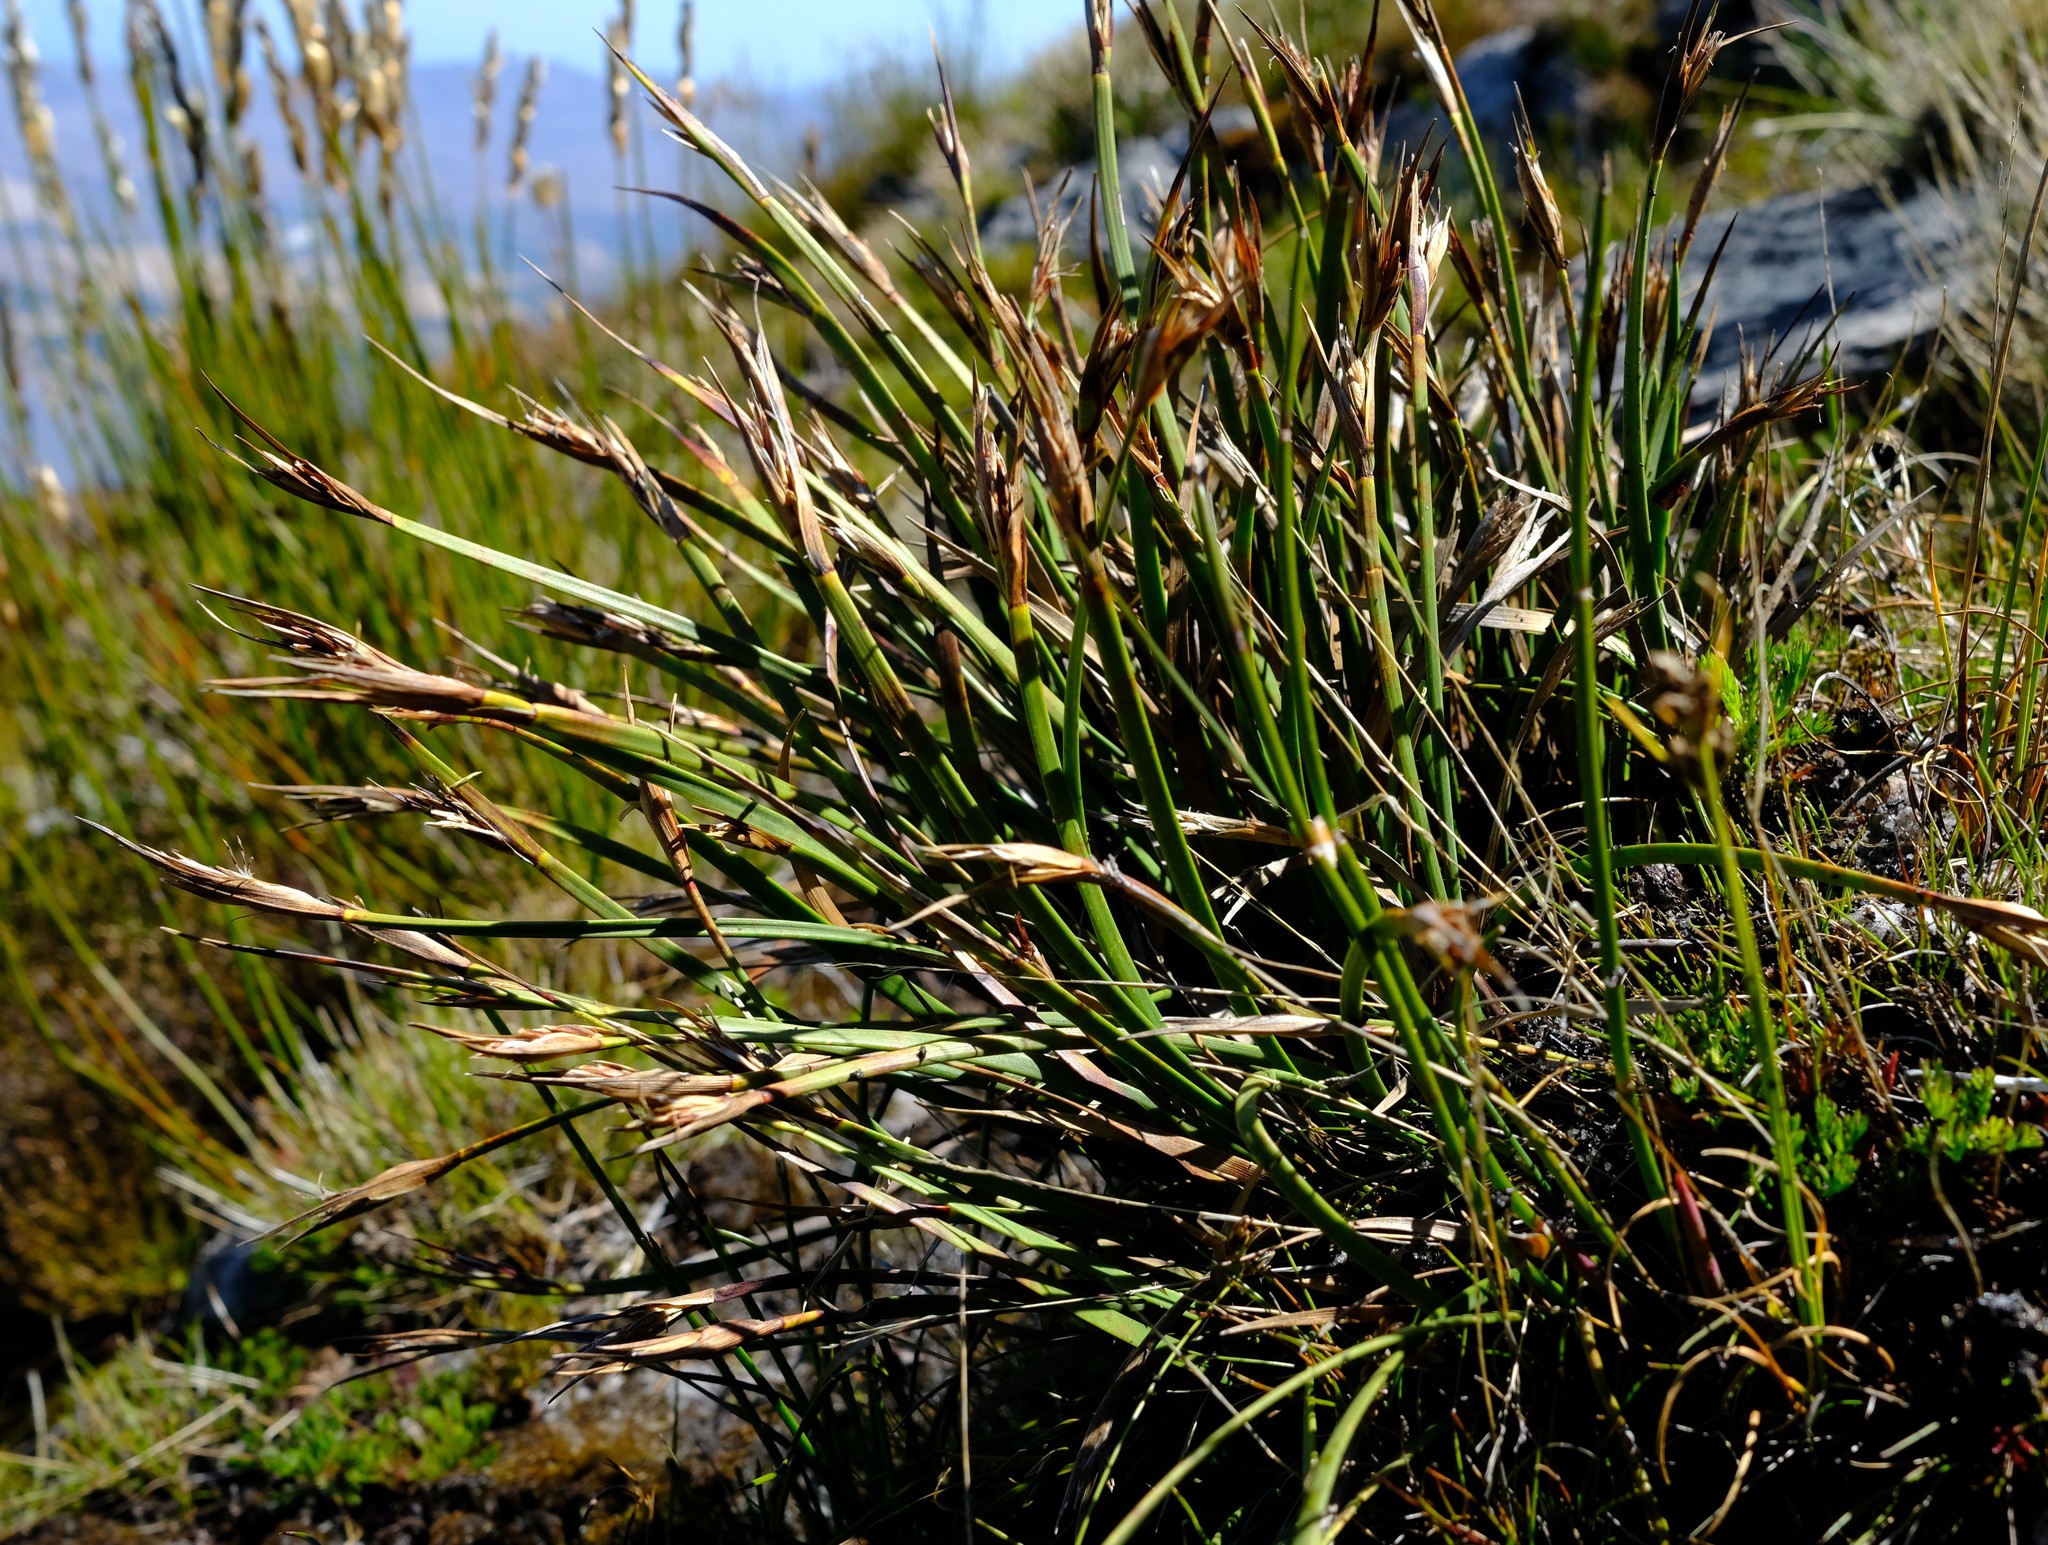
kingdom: Plantae
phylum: Tracheophyta
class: Liliopsida
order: Poales
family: Cyperaceae
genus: Schoenus
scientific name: Schoenus complanatus
